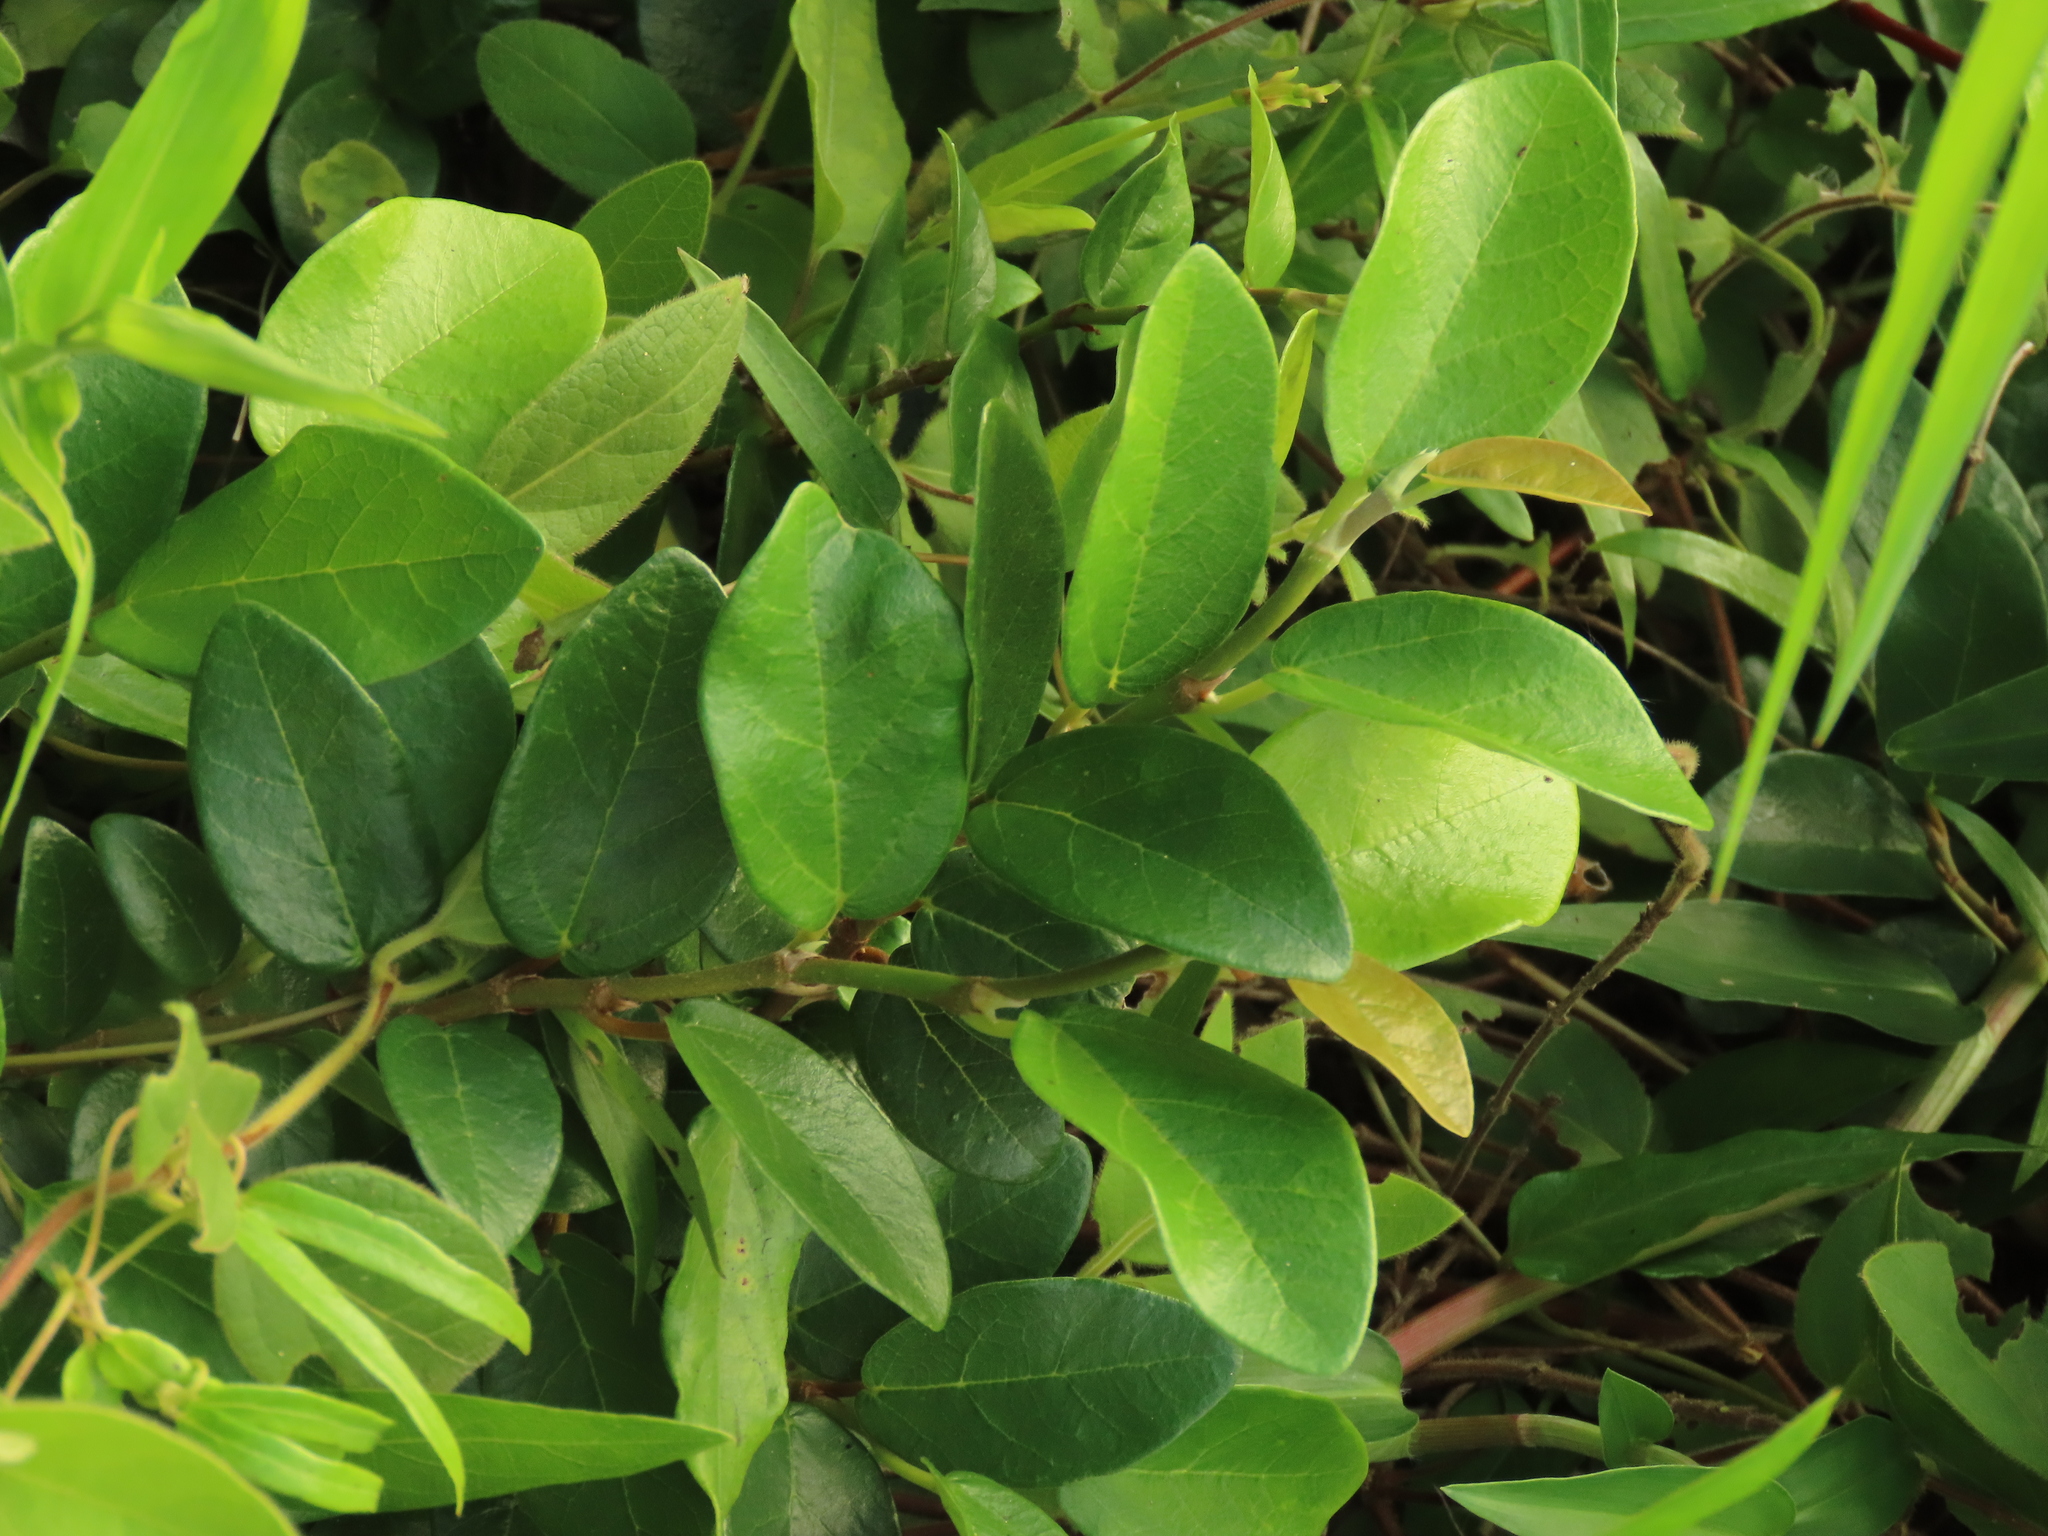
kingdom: Plantae
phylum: Tracheophyta
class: Magnoliopsida
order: Rosales
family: Moraceae
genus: Ficus
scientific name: Ficus pumila
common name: Climbingfig
